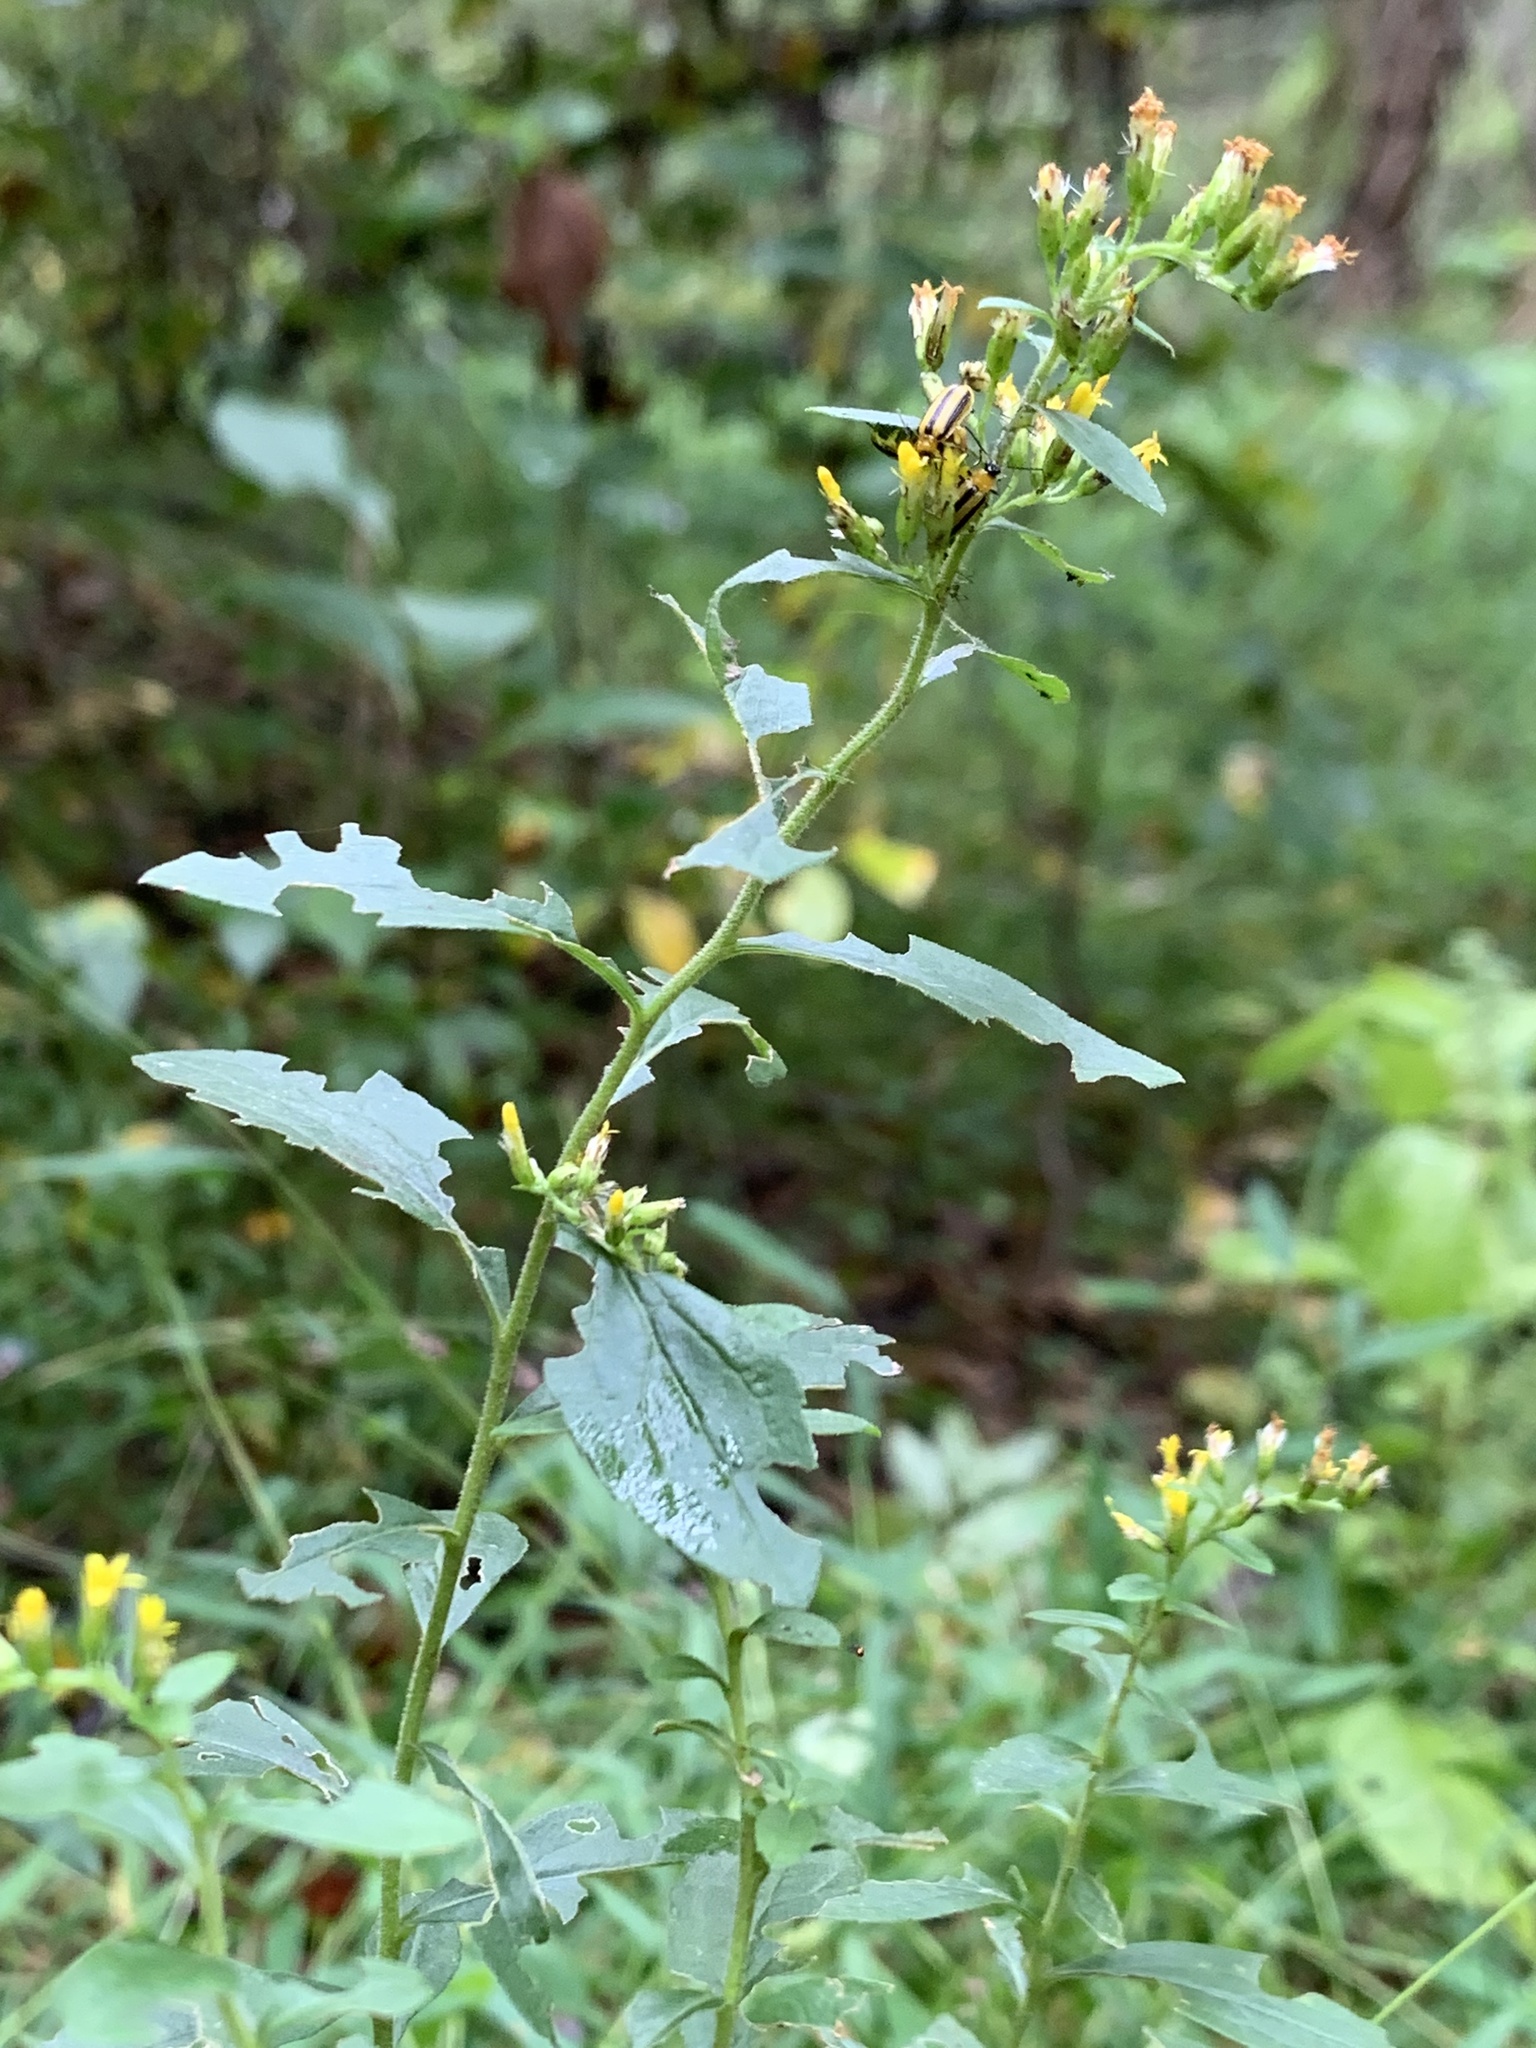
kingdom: Animalia
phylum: Arthropoda
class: Insecta
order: Coleoptera
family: Chrysomelidae
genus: Acalymma
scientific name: Acalymma vittatum
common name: Striped cucumber beetle
